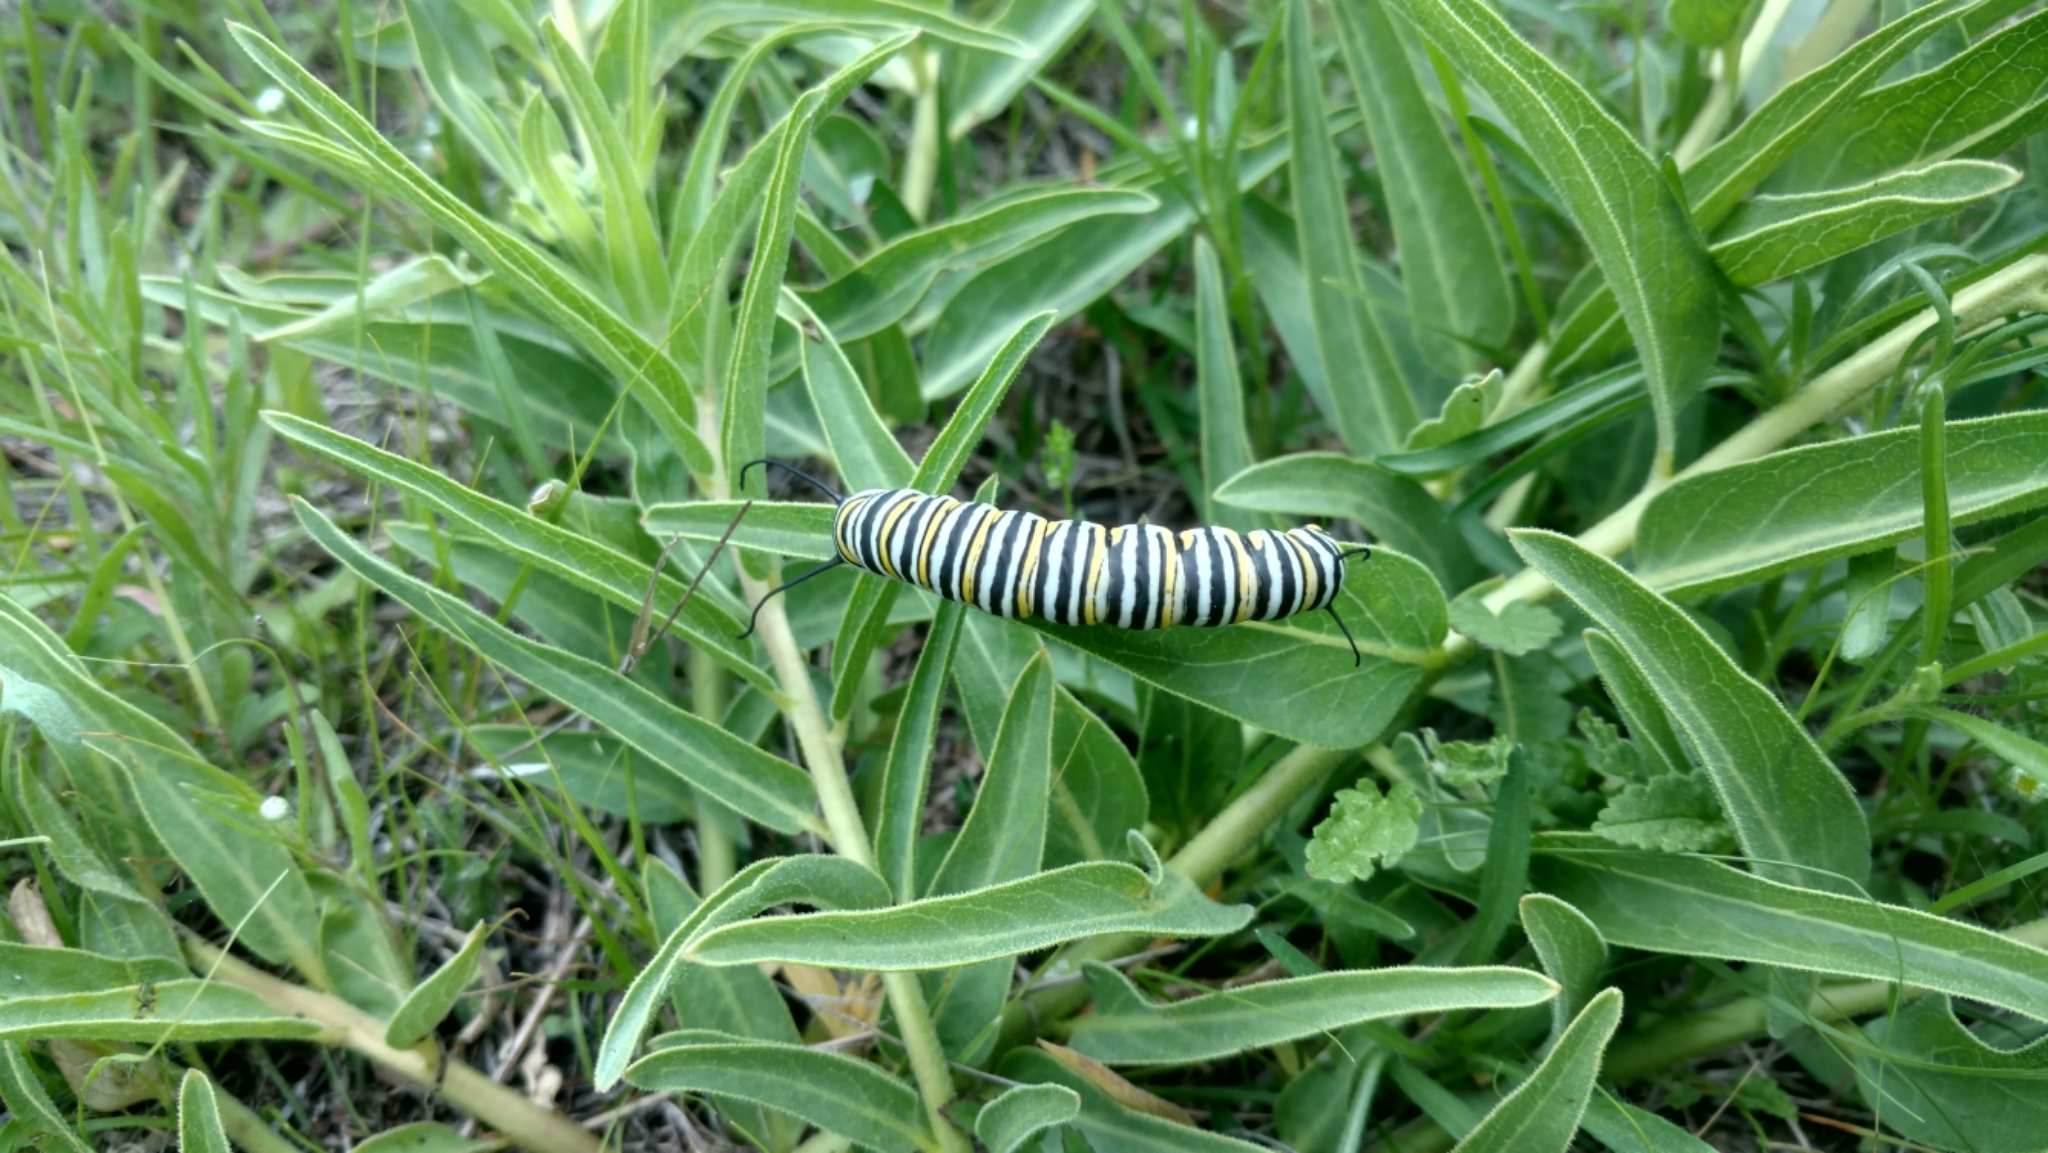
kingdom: Animalia
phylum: Arthropoda
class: Insecta
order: Lepidoptera
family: Nymphalidae
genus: Danaus
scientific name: Danaus plexippus
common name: Monarch
